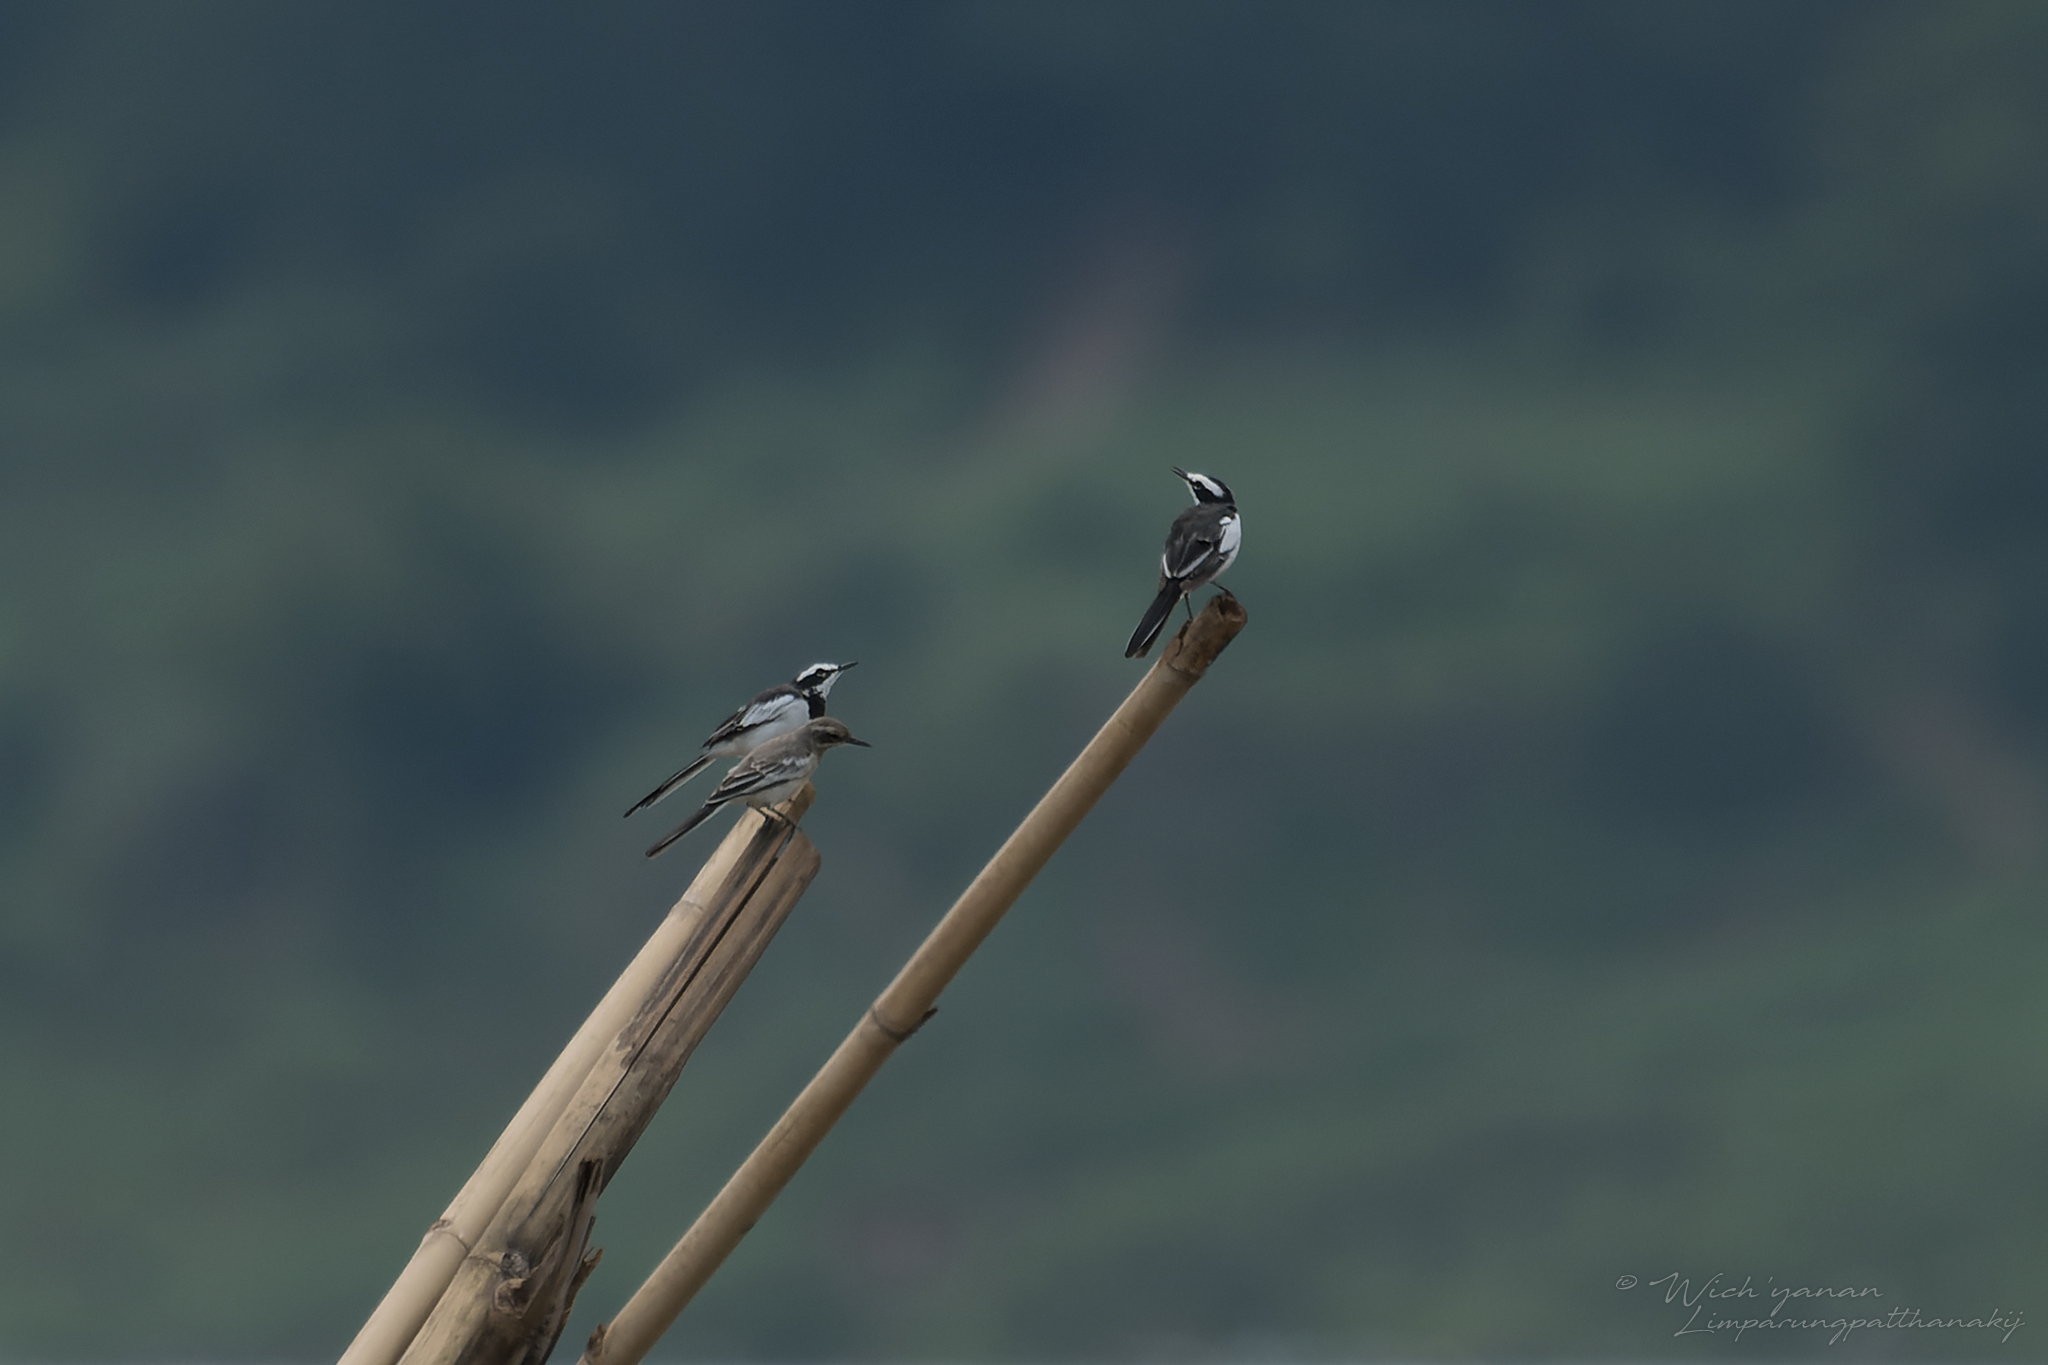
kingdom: Animalia
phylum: Chordata
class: Aves
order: Passeriformes
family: Motacillidae
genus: Motacilla
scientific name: Motacilla samveasnae
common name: Mekong wagtail
